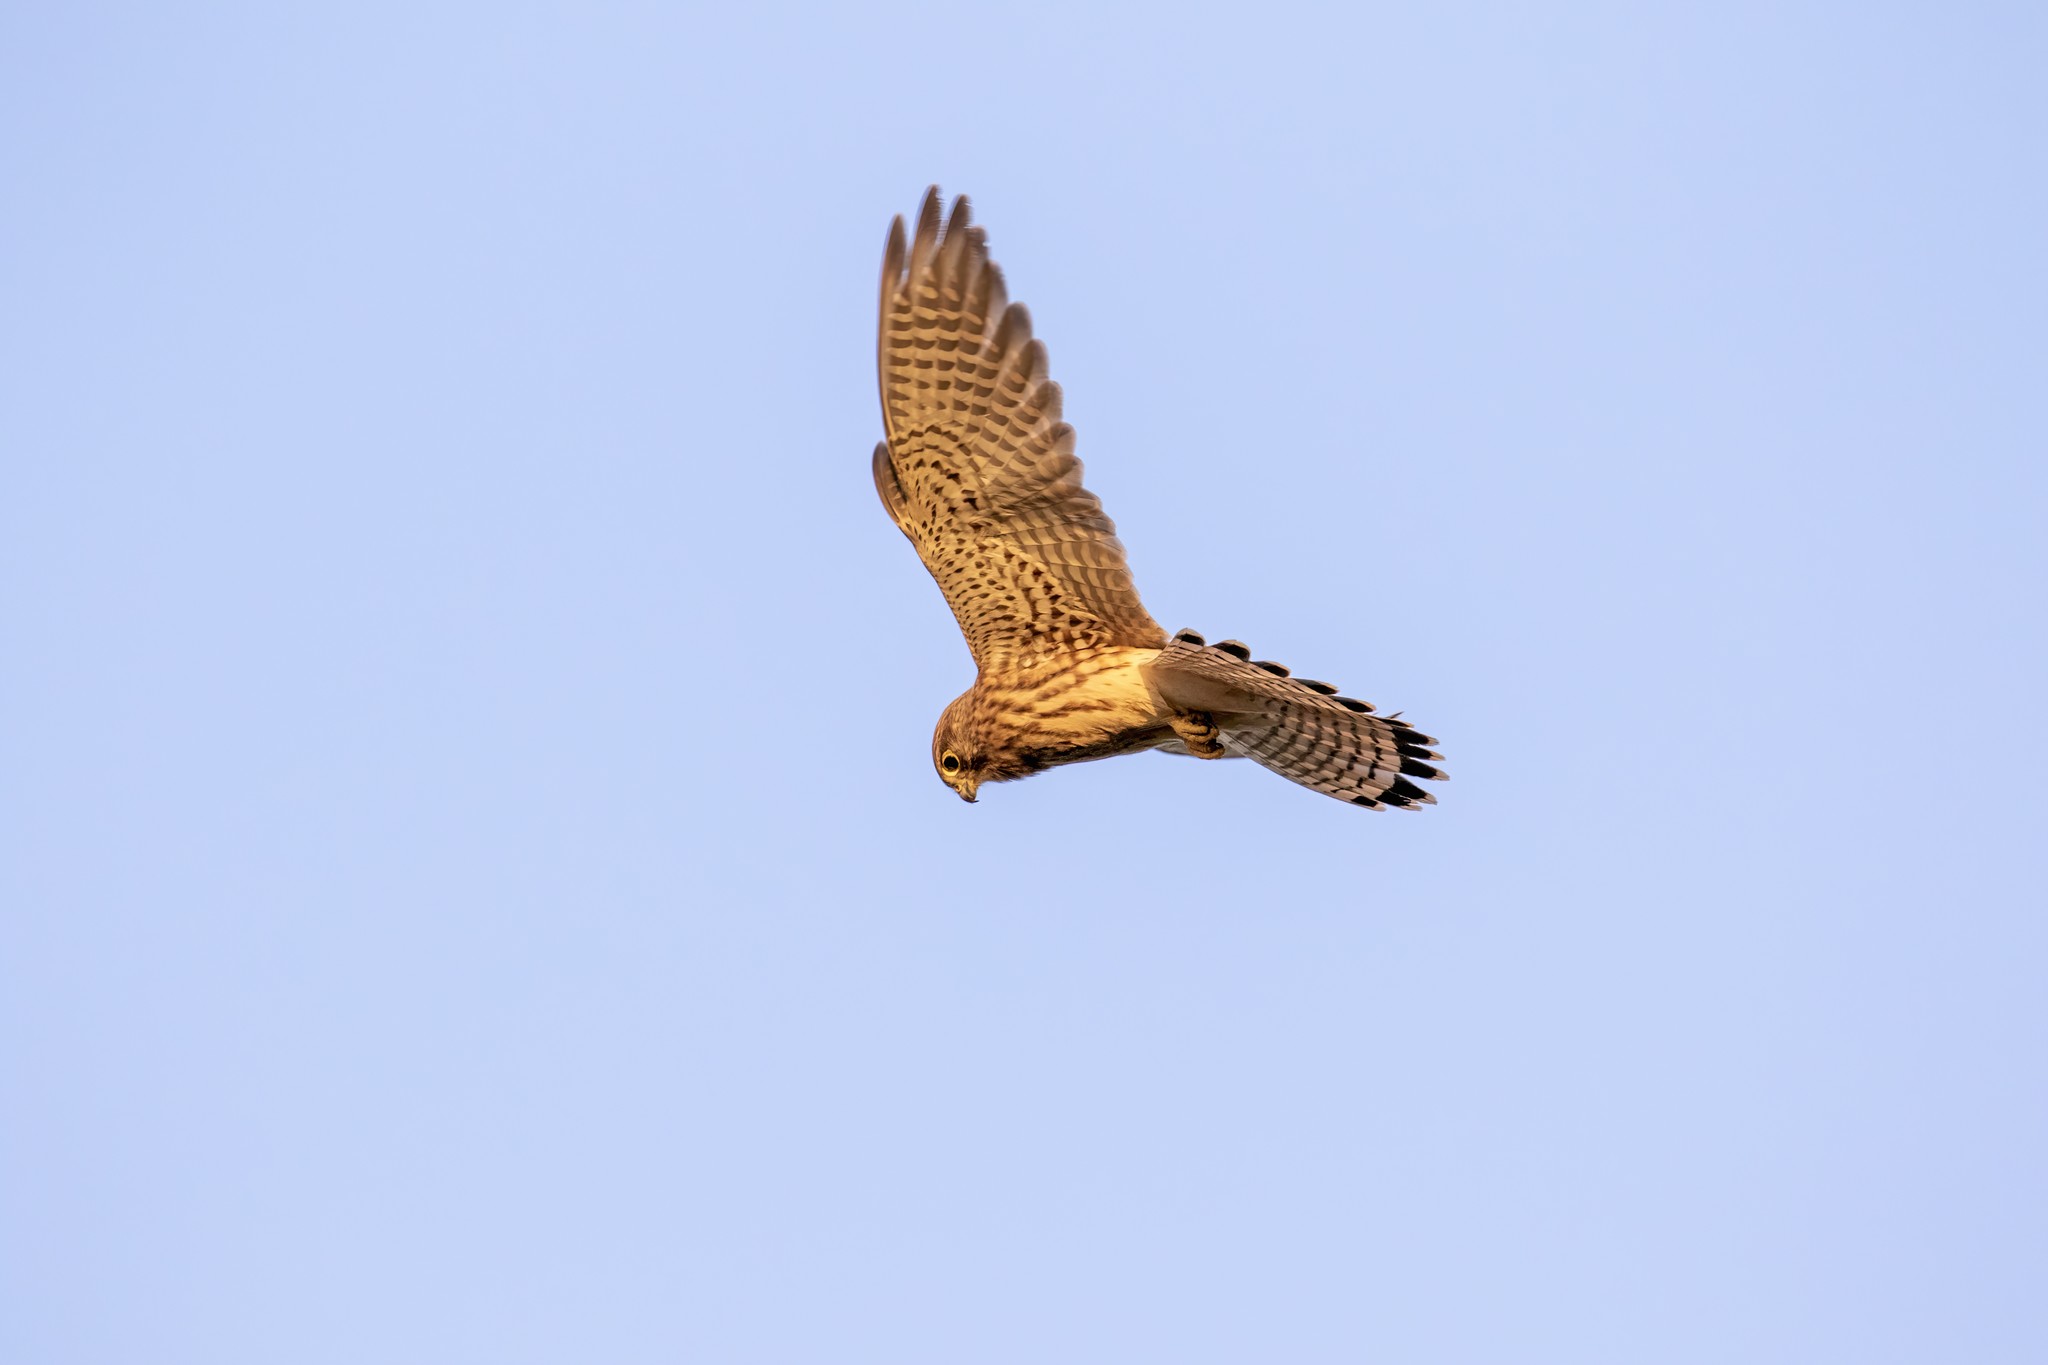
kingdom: Animalia
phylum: Chordata
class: Aves
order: Falconiformes
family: Falconidae
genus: Falco
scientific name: Falco tinnunculus
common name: Common kestrel
